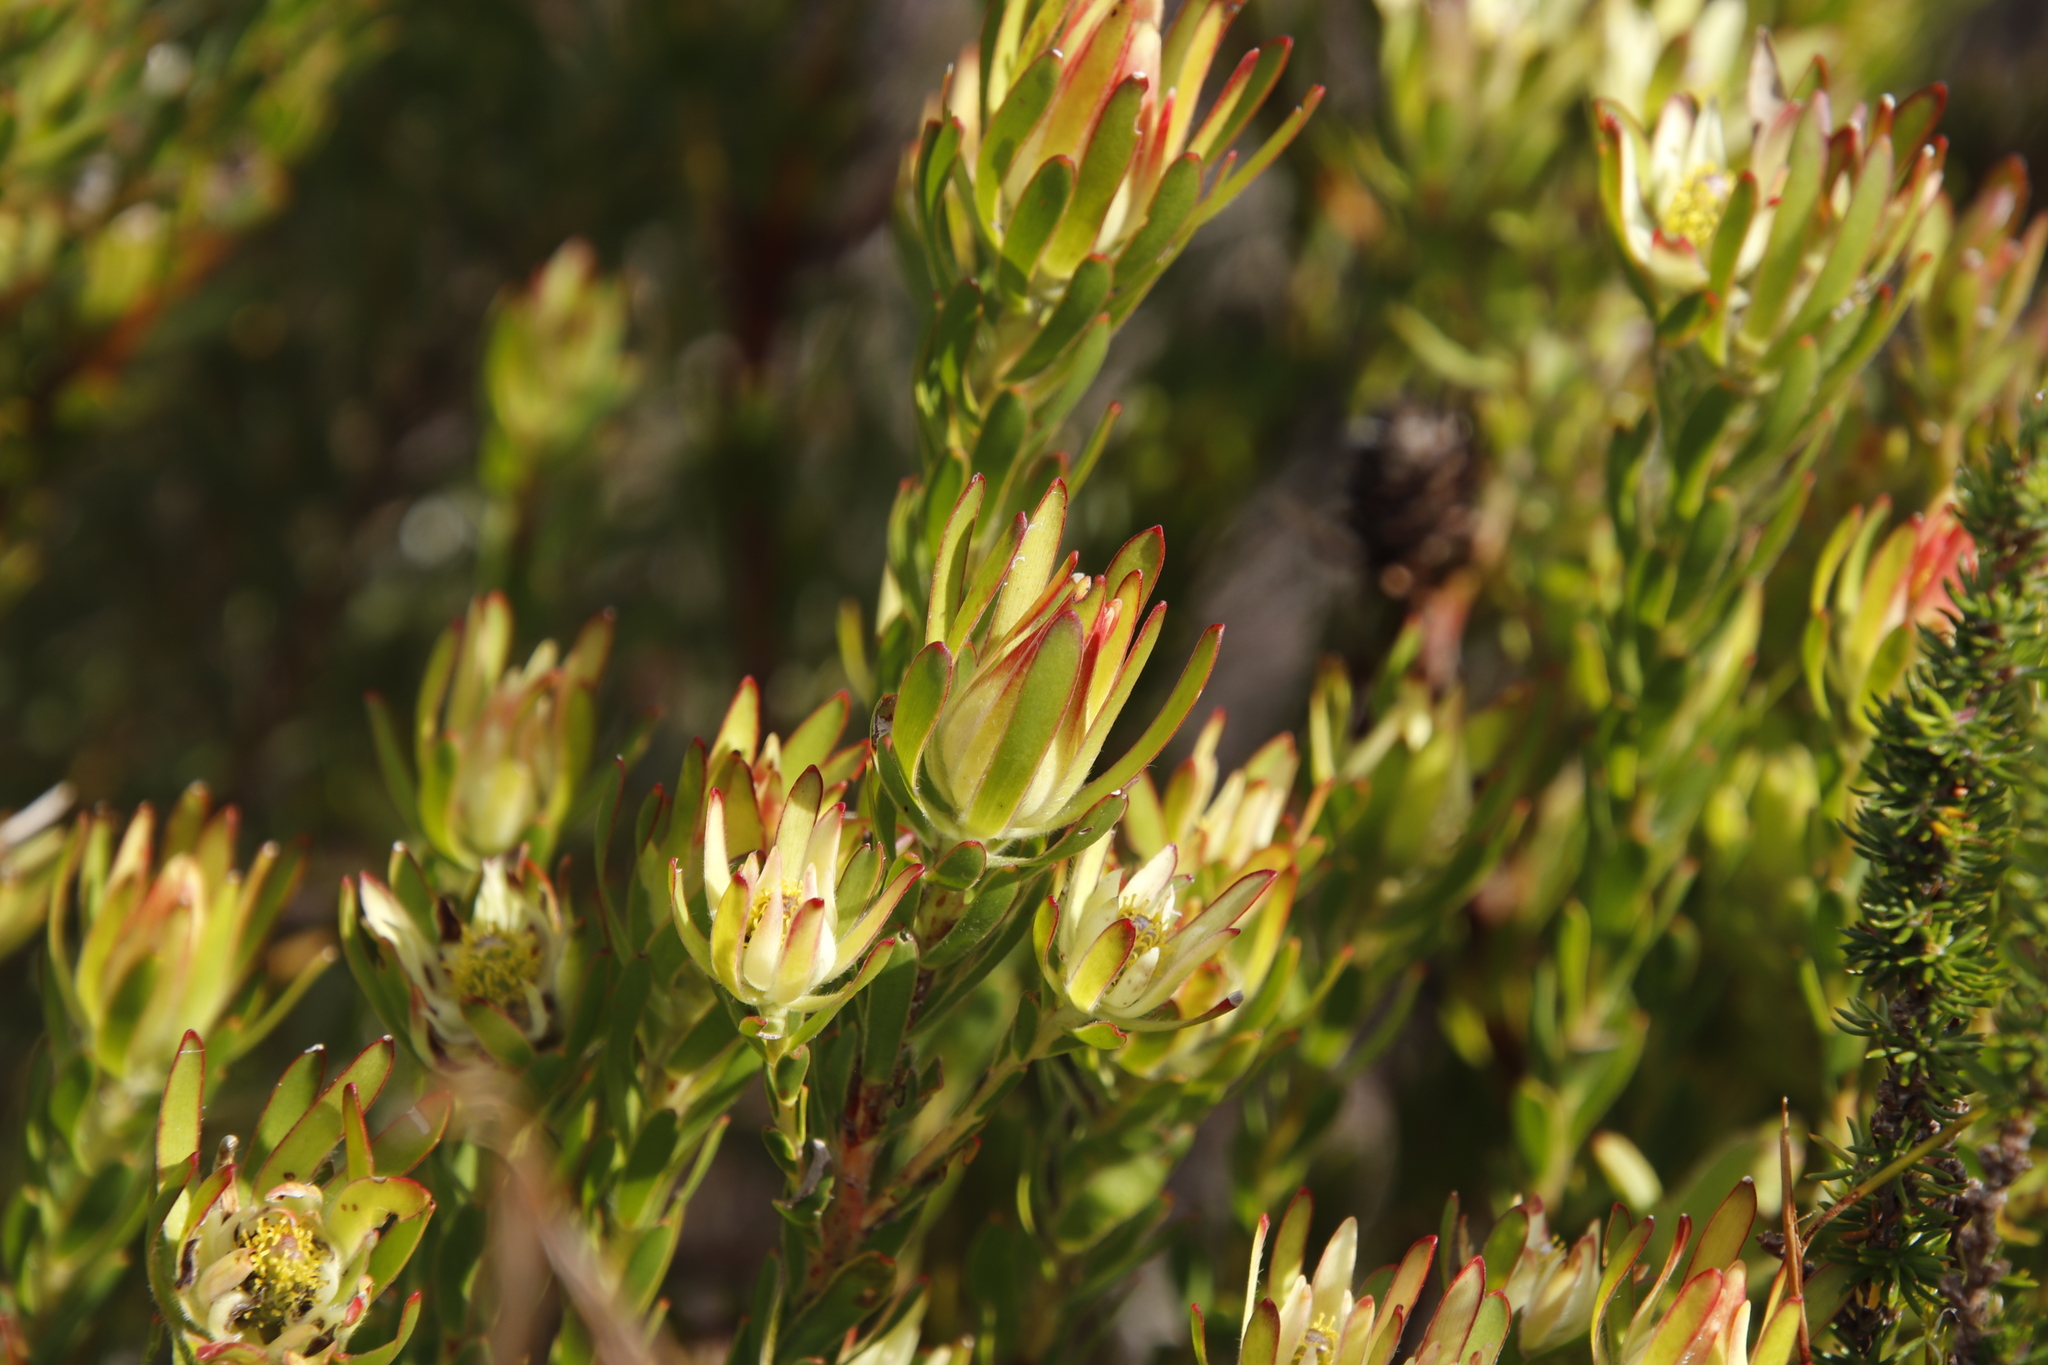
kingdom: Plantae
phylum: Tracheophyta
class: Magnoliopsida
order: Proteales
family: Proteaceae
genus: Leucadendron
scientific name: Leucadendron modestum
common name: Rough-leaf conebush
